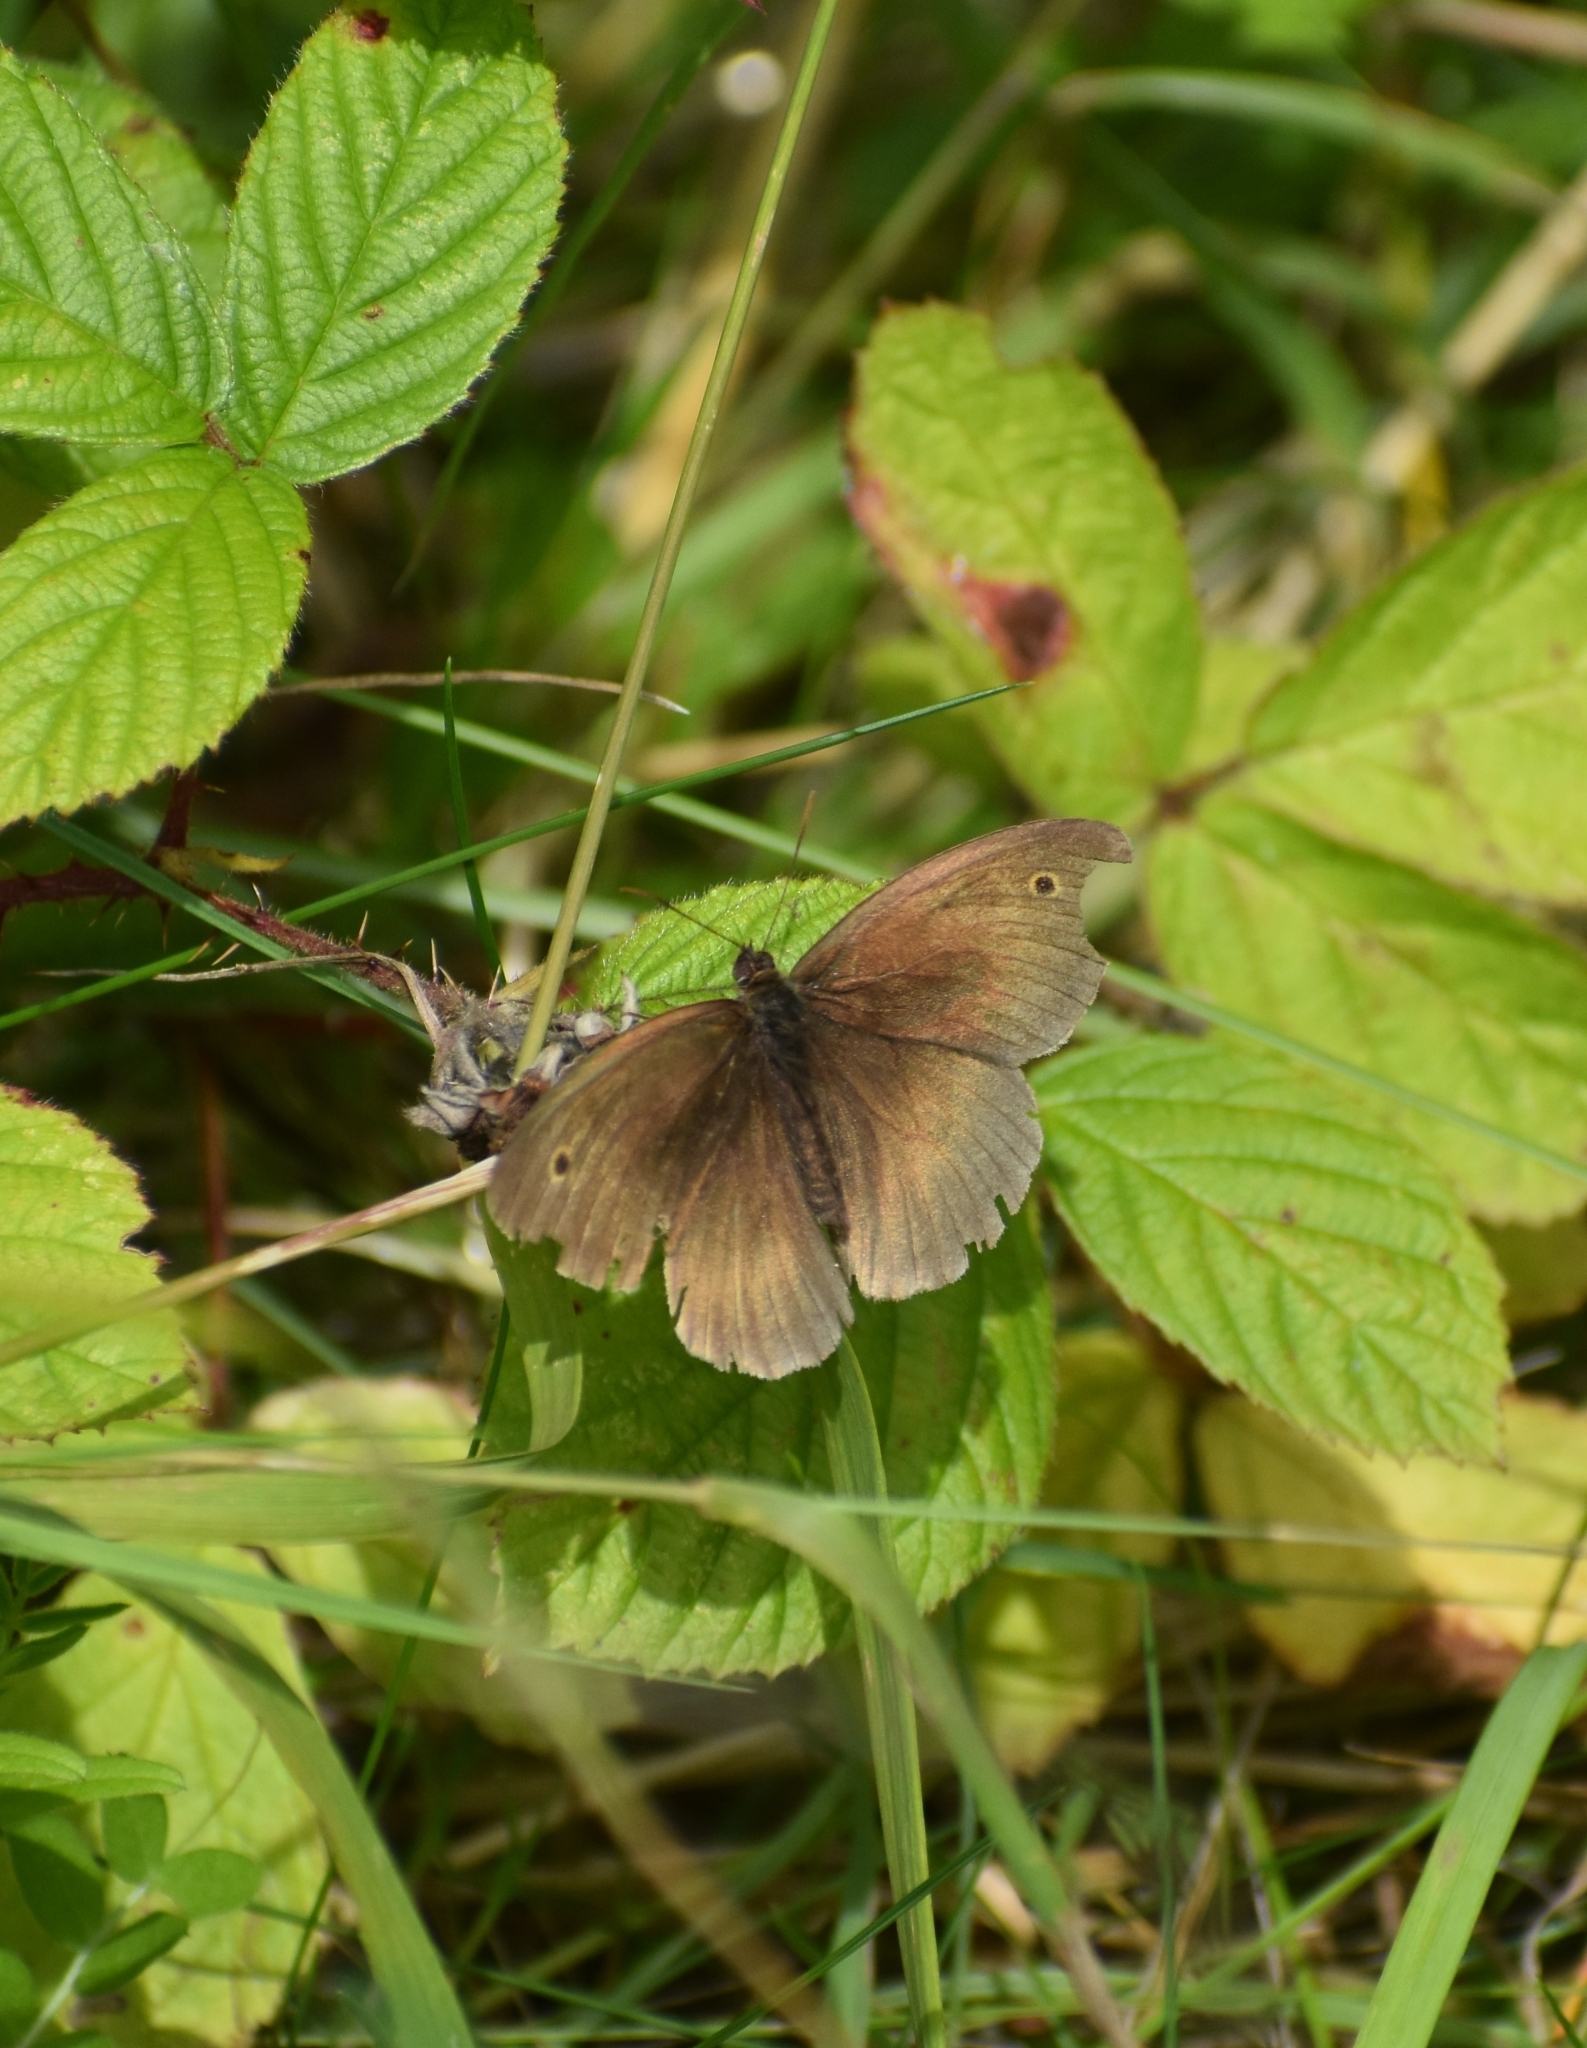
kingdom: Animalia
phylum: Arthropoda
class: Insecta
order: Lepidoptera
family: Nymphalidae
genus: Maniola
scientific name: Maniola jurtina
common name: Meadow brown
